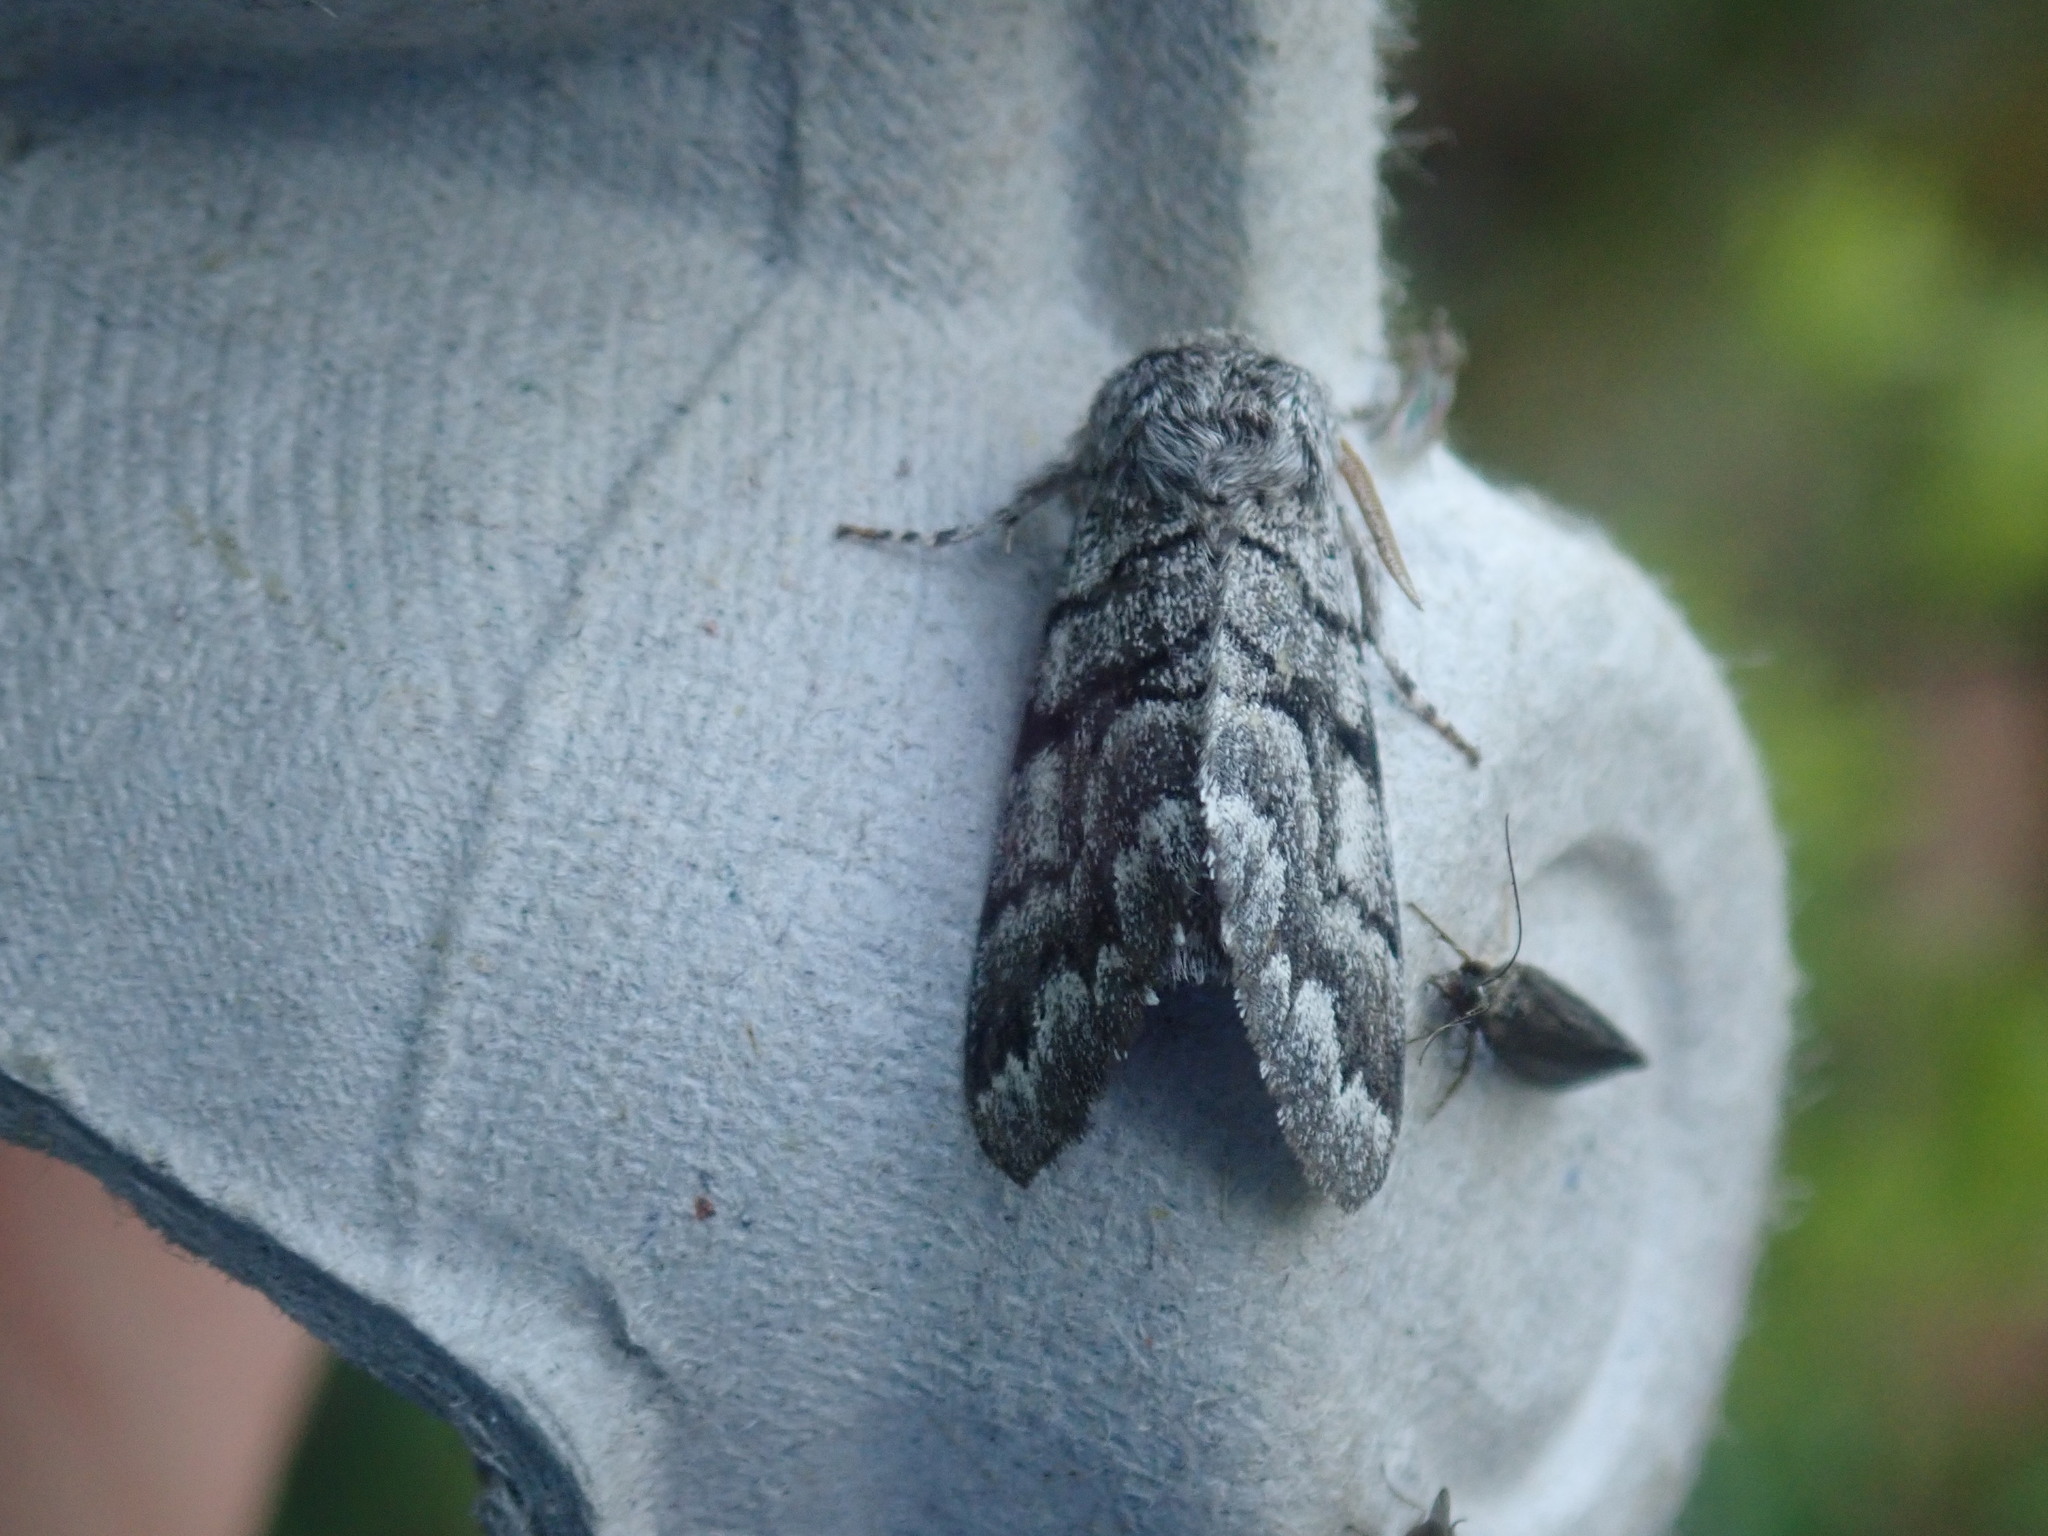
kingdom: Animalia
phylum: Arthropoda
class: Insecta
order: Lepidoptera
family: Noctuidae
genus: Panthea
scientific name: Panthea furcilla
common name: Eastern panthea moth
